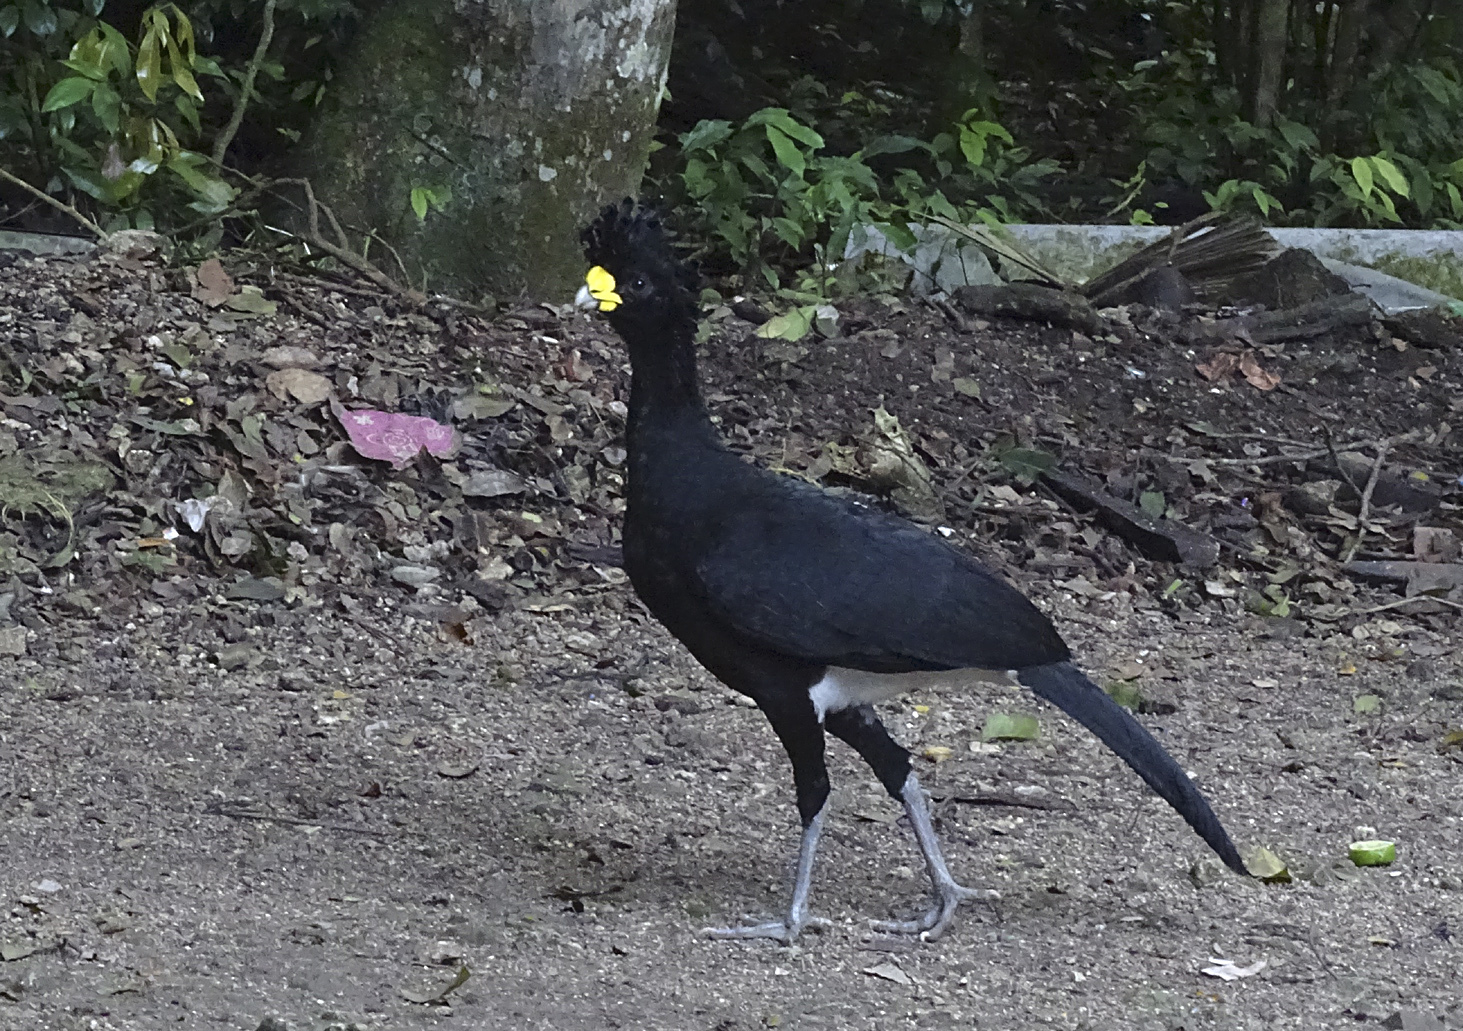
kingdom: Animalia
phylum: Chordata
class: Aves
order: Galliformes
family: Cracidae
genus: Crax
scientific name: Crax rubra
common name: Great curassow
